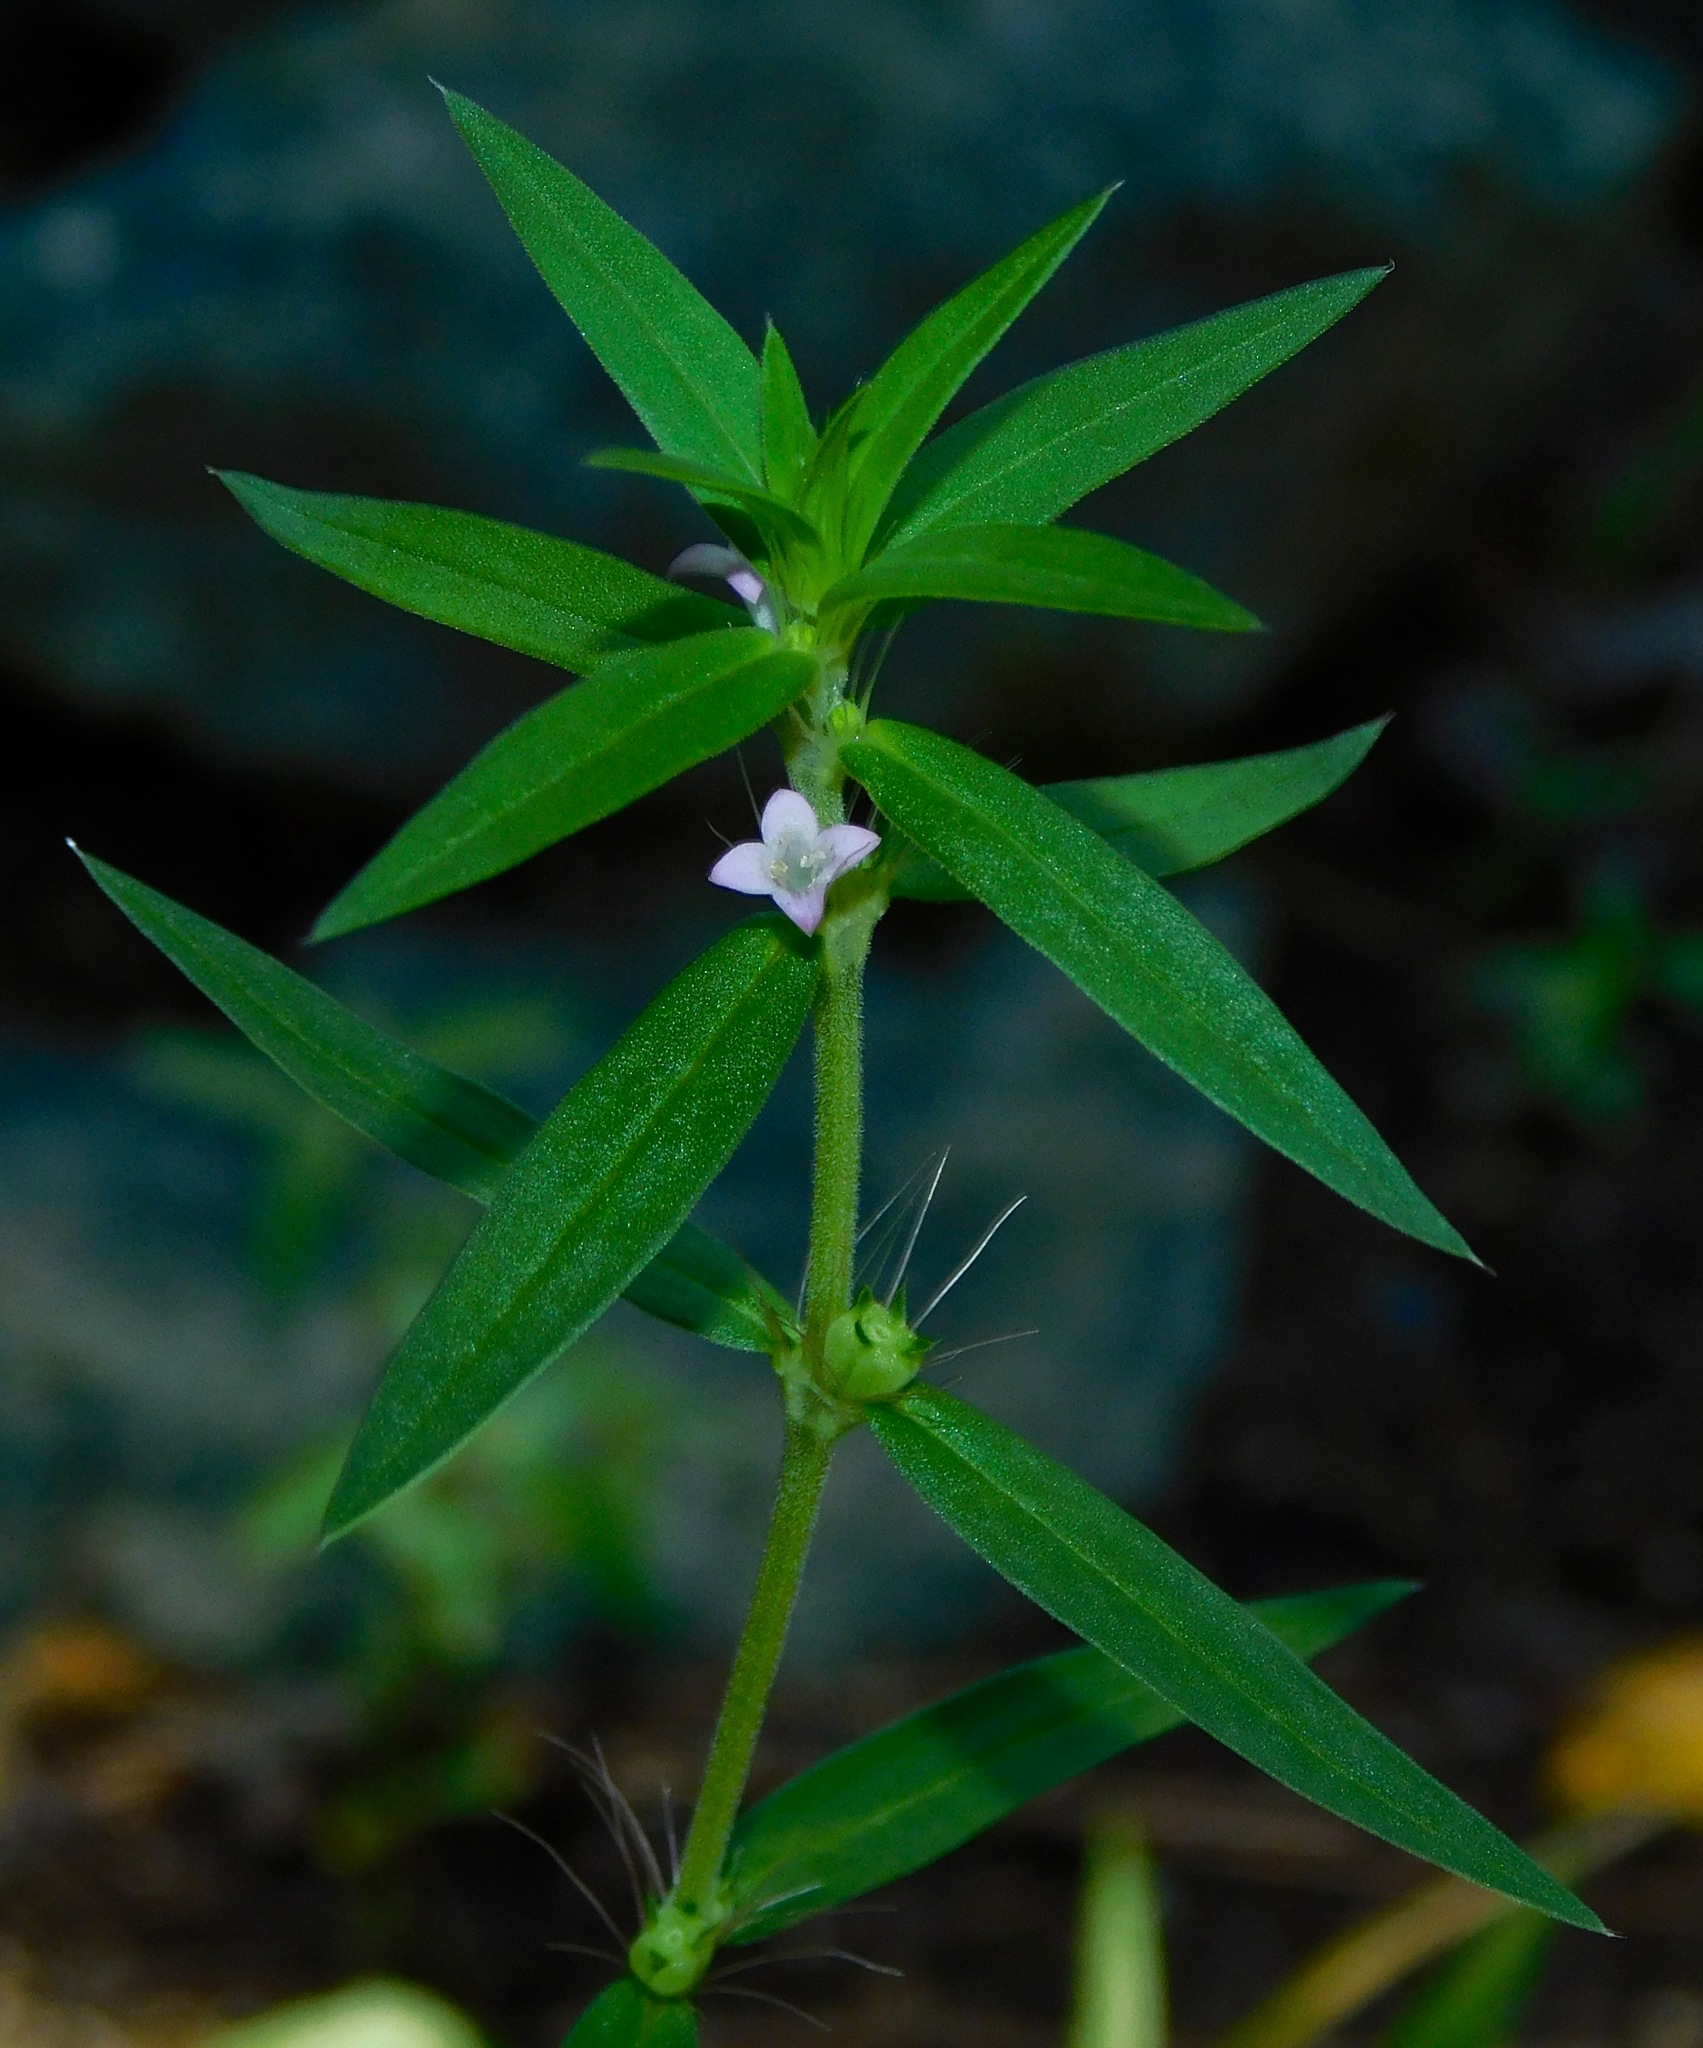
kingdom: Plantae
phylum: Tracheophyta
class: Magnoliopsida
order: Gentianales
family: Rubiaceae
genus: Hexasepalum
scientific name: Hexasepalum teres
